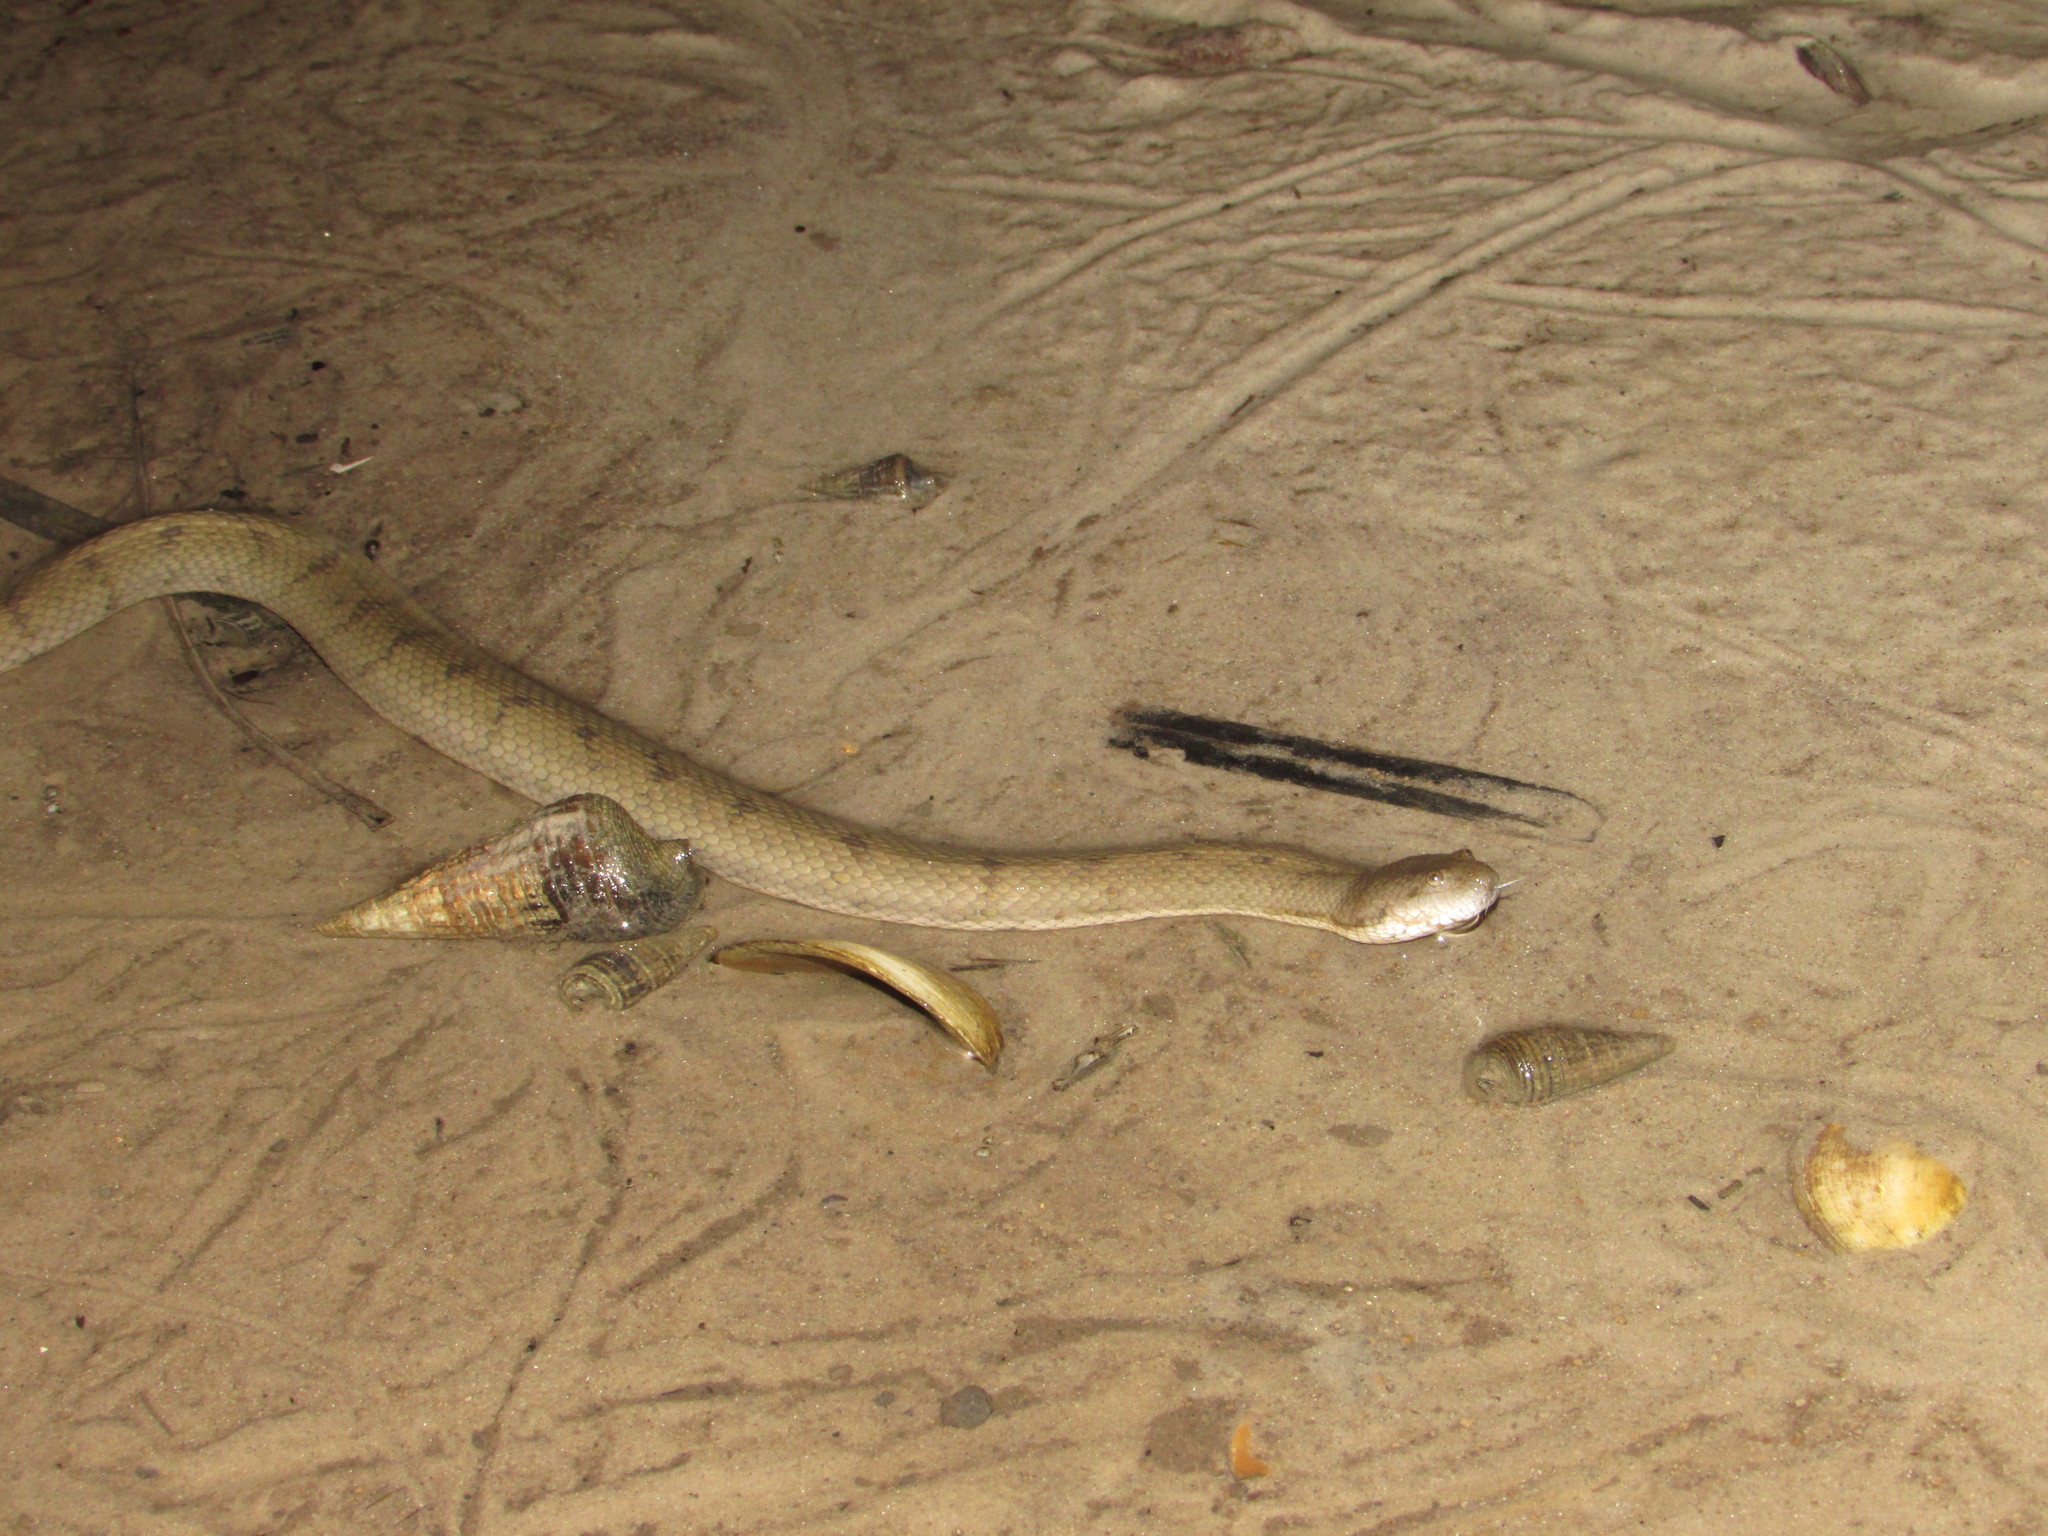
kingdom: Animalia
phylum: Chordata
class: Squamata
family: Homalopsidae
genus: Cerberus
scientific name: Cerberus rynchops
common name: Dog-faced water snake
